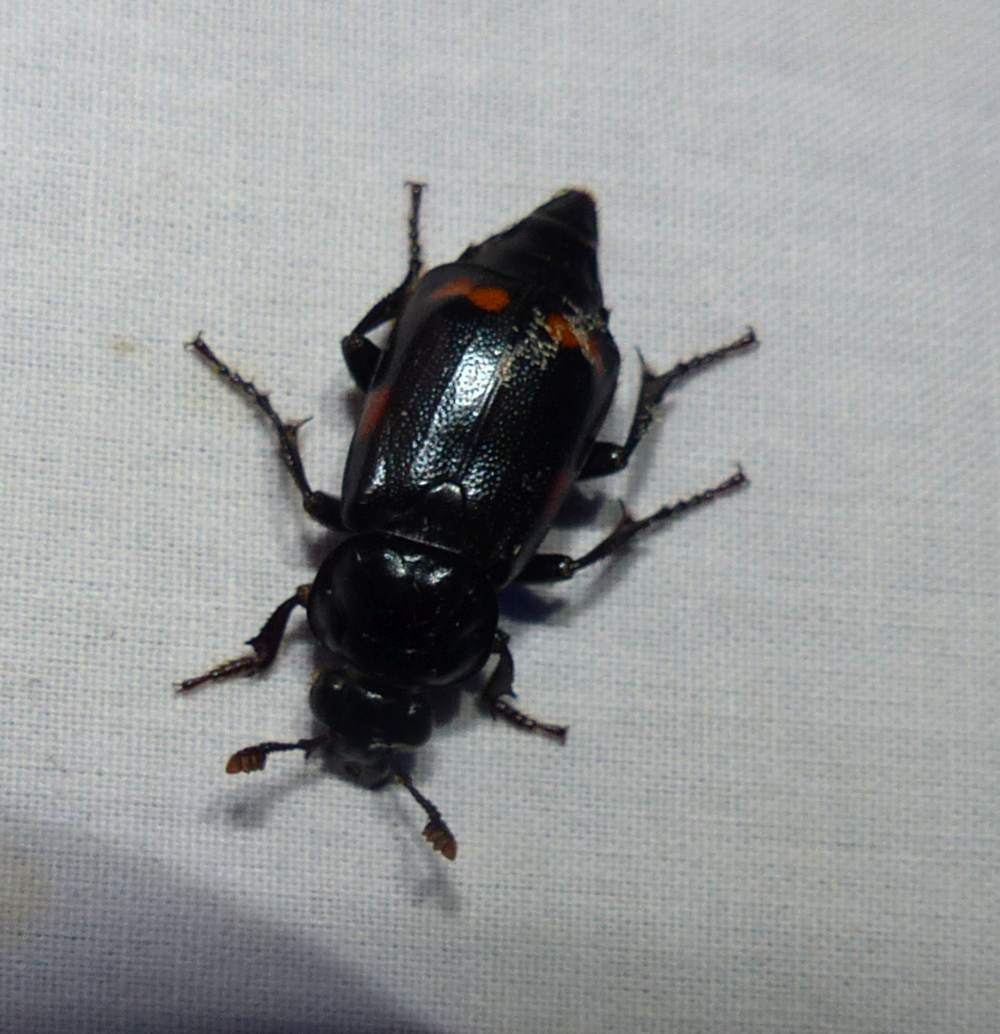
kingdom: Animalia
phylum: Arthropoda
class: Insecta
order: Coleoptera
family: Staphylinidae
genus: Nicrophorus
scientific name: Nicrophorus pustulatus
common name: Pustulated carrion beetle
